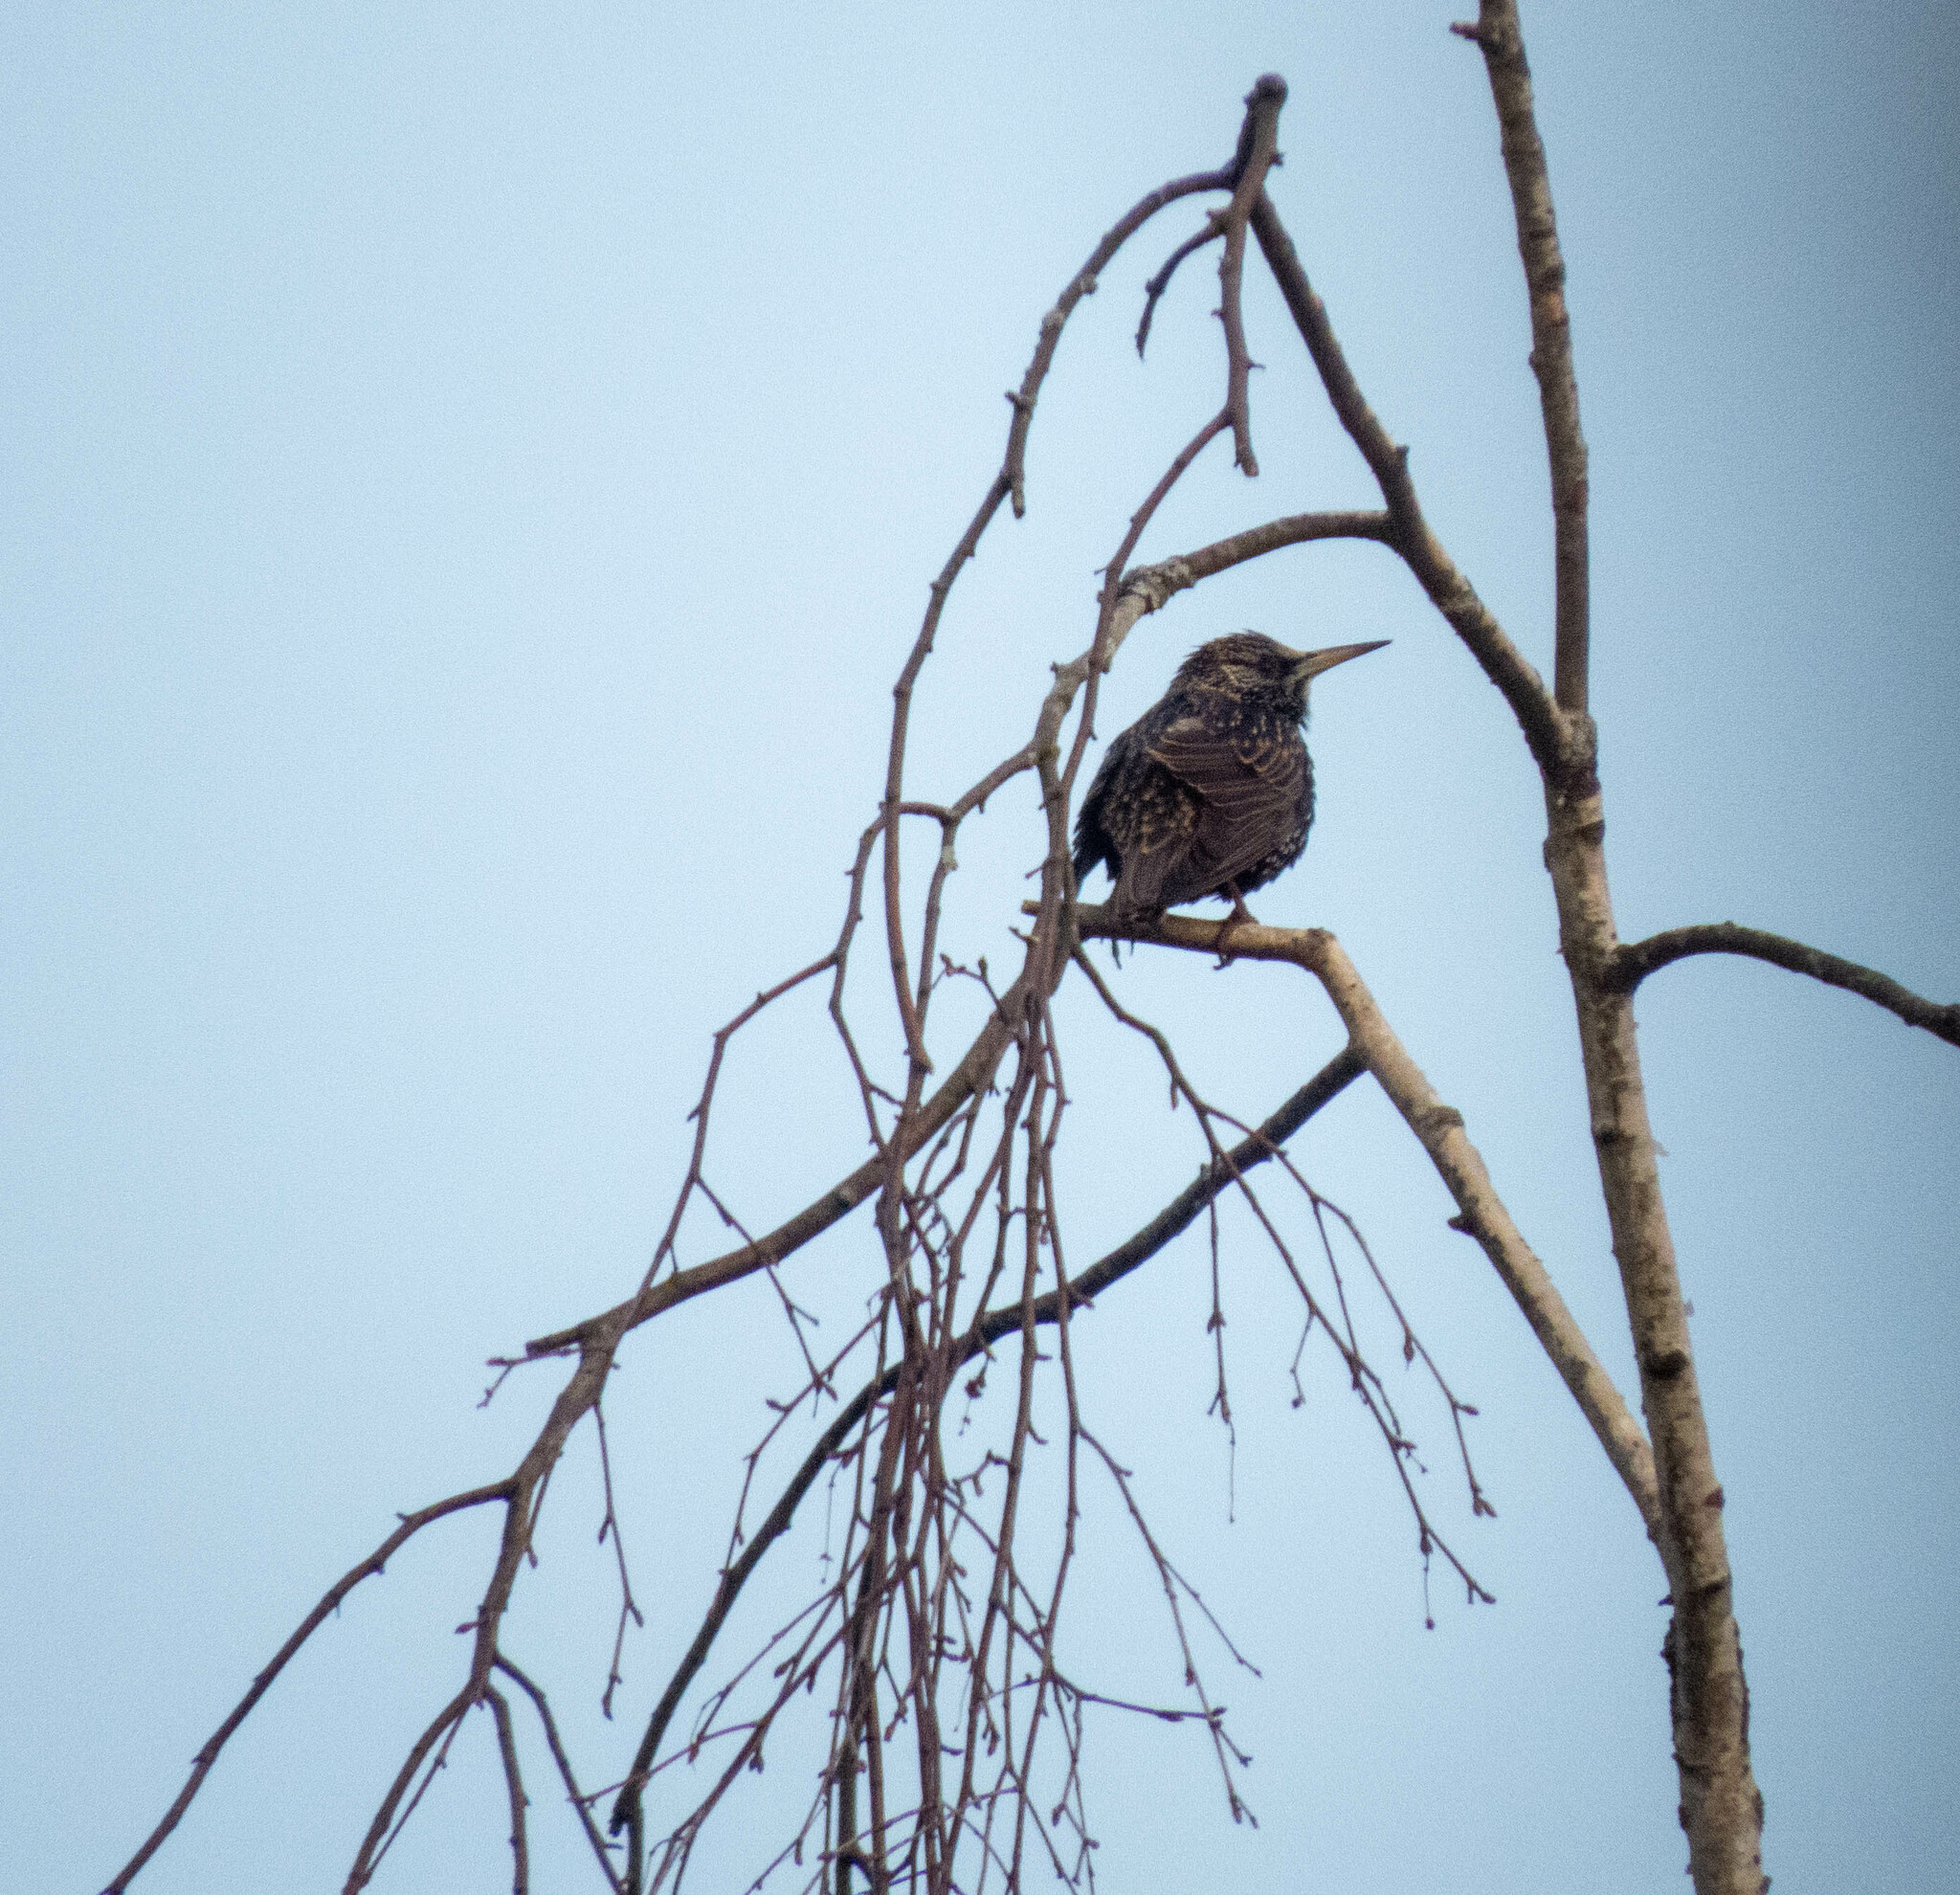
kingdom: Animalia
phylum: Chordata
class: Aves
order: Passeriformes
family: Sturnidae
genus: Sturnus
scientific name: Sturnus vulgaris
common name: Common starling
